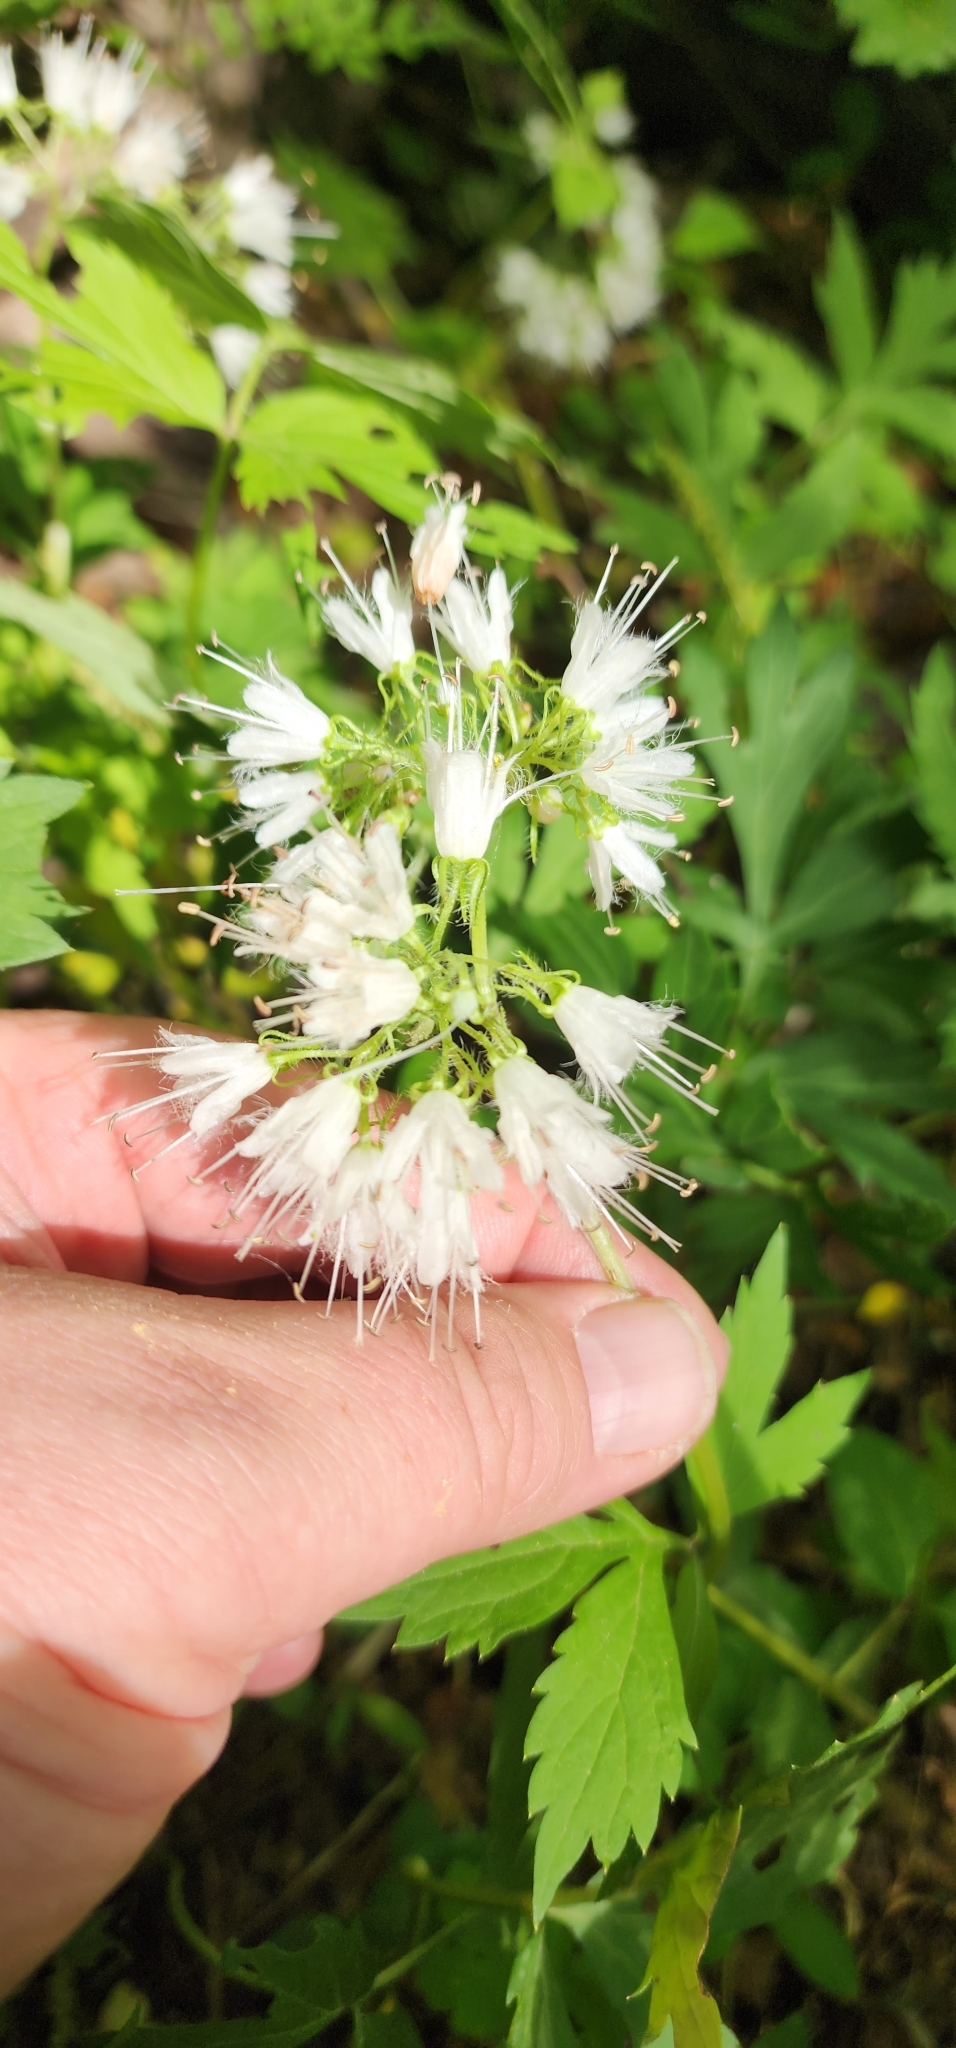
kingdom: Plantae
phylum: Tracheophyta
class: Magnoliopsida
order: Boraginales
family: Hydrophyllaceae
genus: Hydrophyllum
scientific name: Hydrophyllum virginianum
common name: Virginia waterleaf
